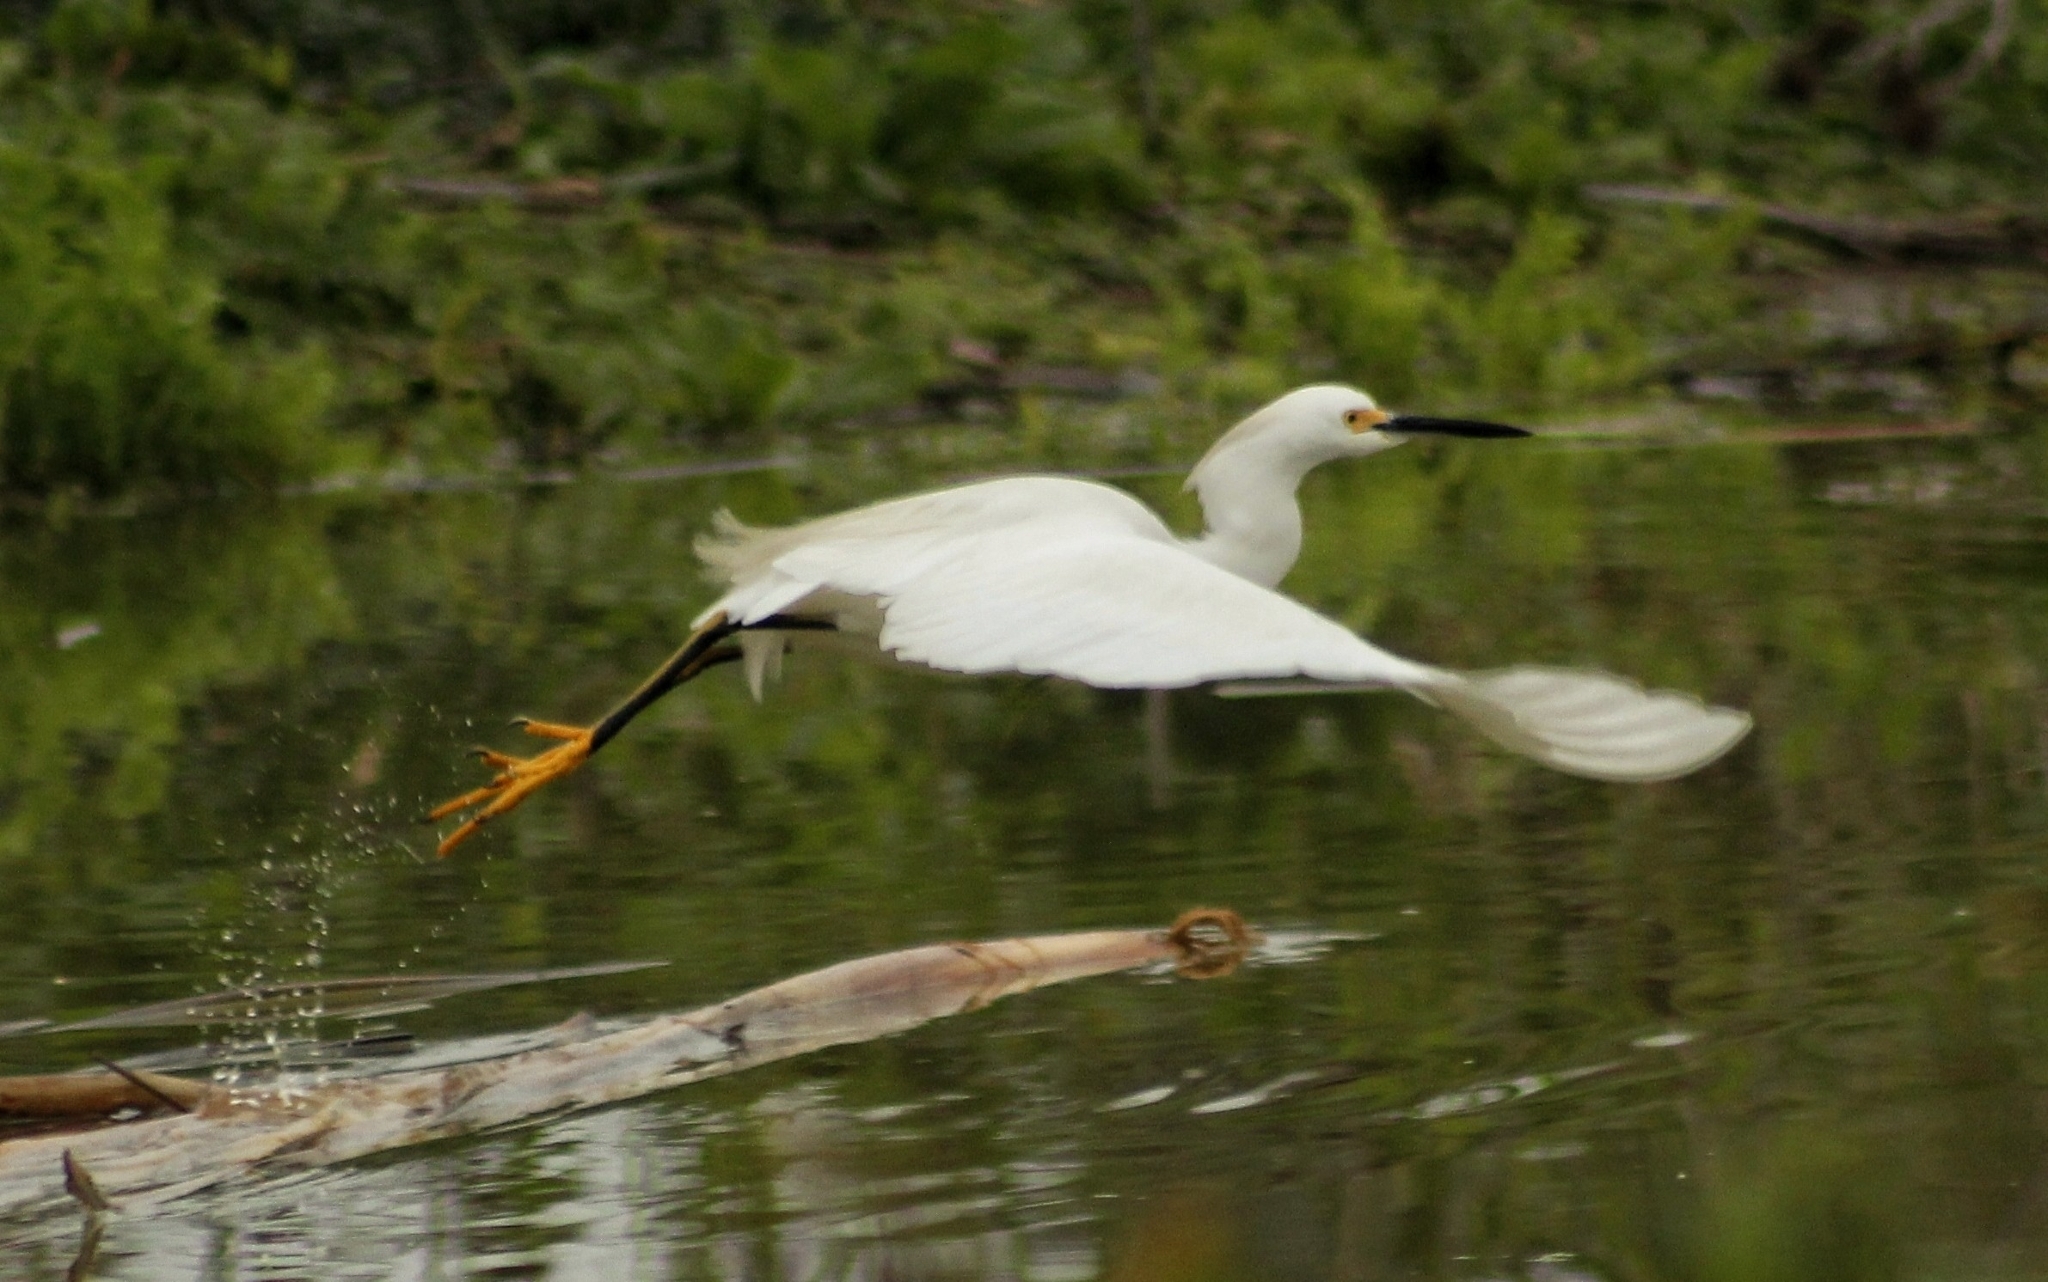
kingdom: Animalia
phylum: Chordata
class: Aves
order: Pelecaniformes
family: Ardeidae
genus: Egretta
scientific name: Egretta thula
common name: Snowy egret
